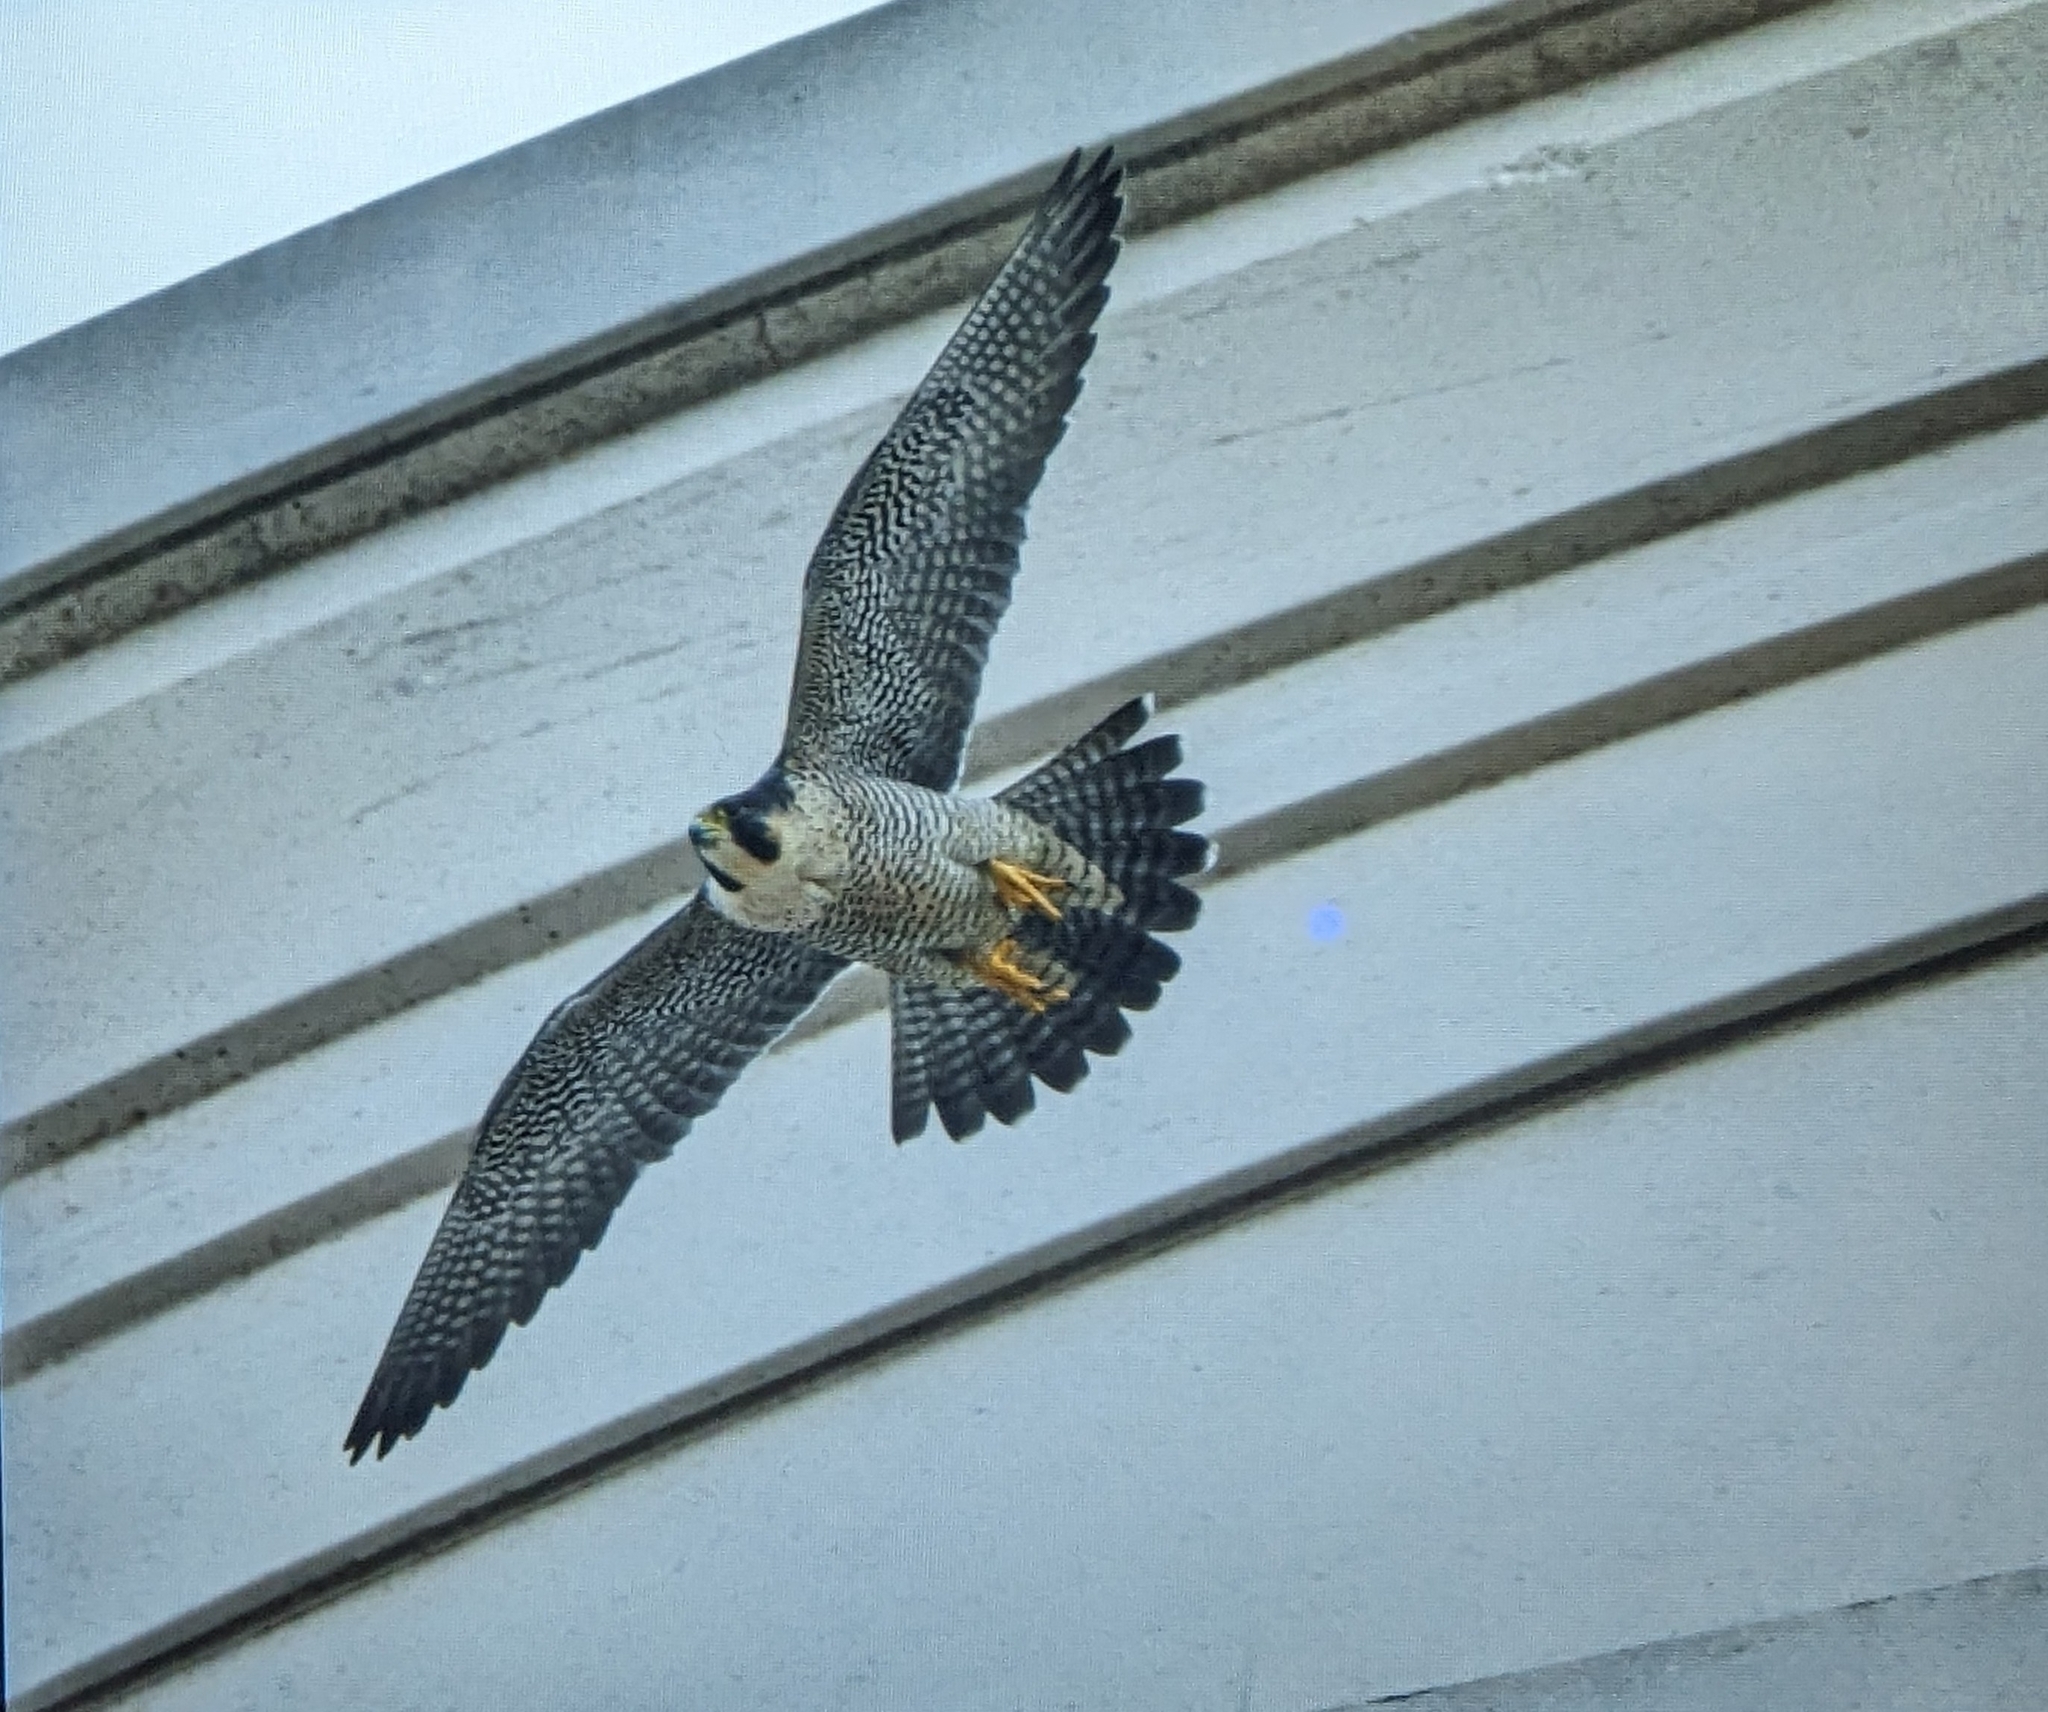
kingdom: Animalia
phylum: Chordata
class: Aves
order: Falconiformes
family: Falconidae
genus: Falco
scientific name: Falco peregrinus
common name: Peregrine falcon
